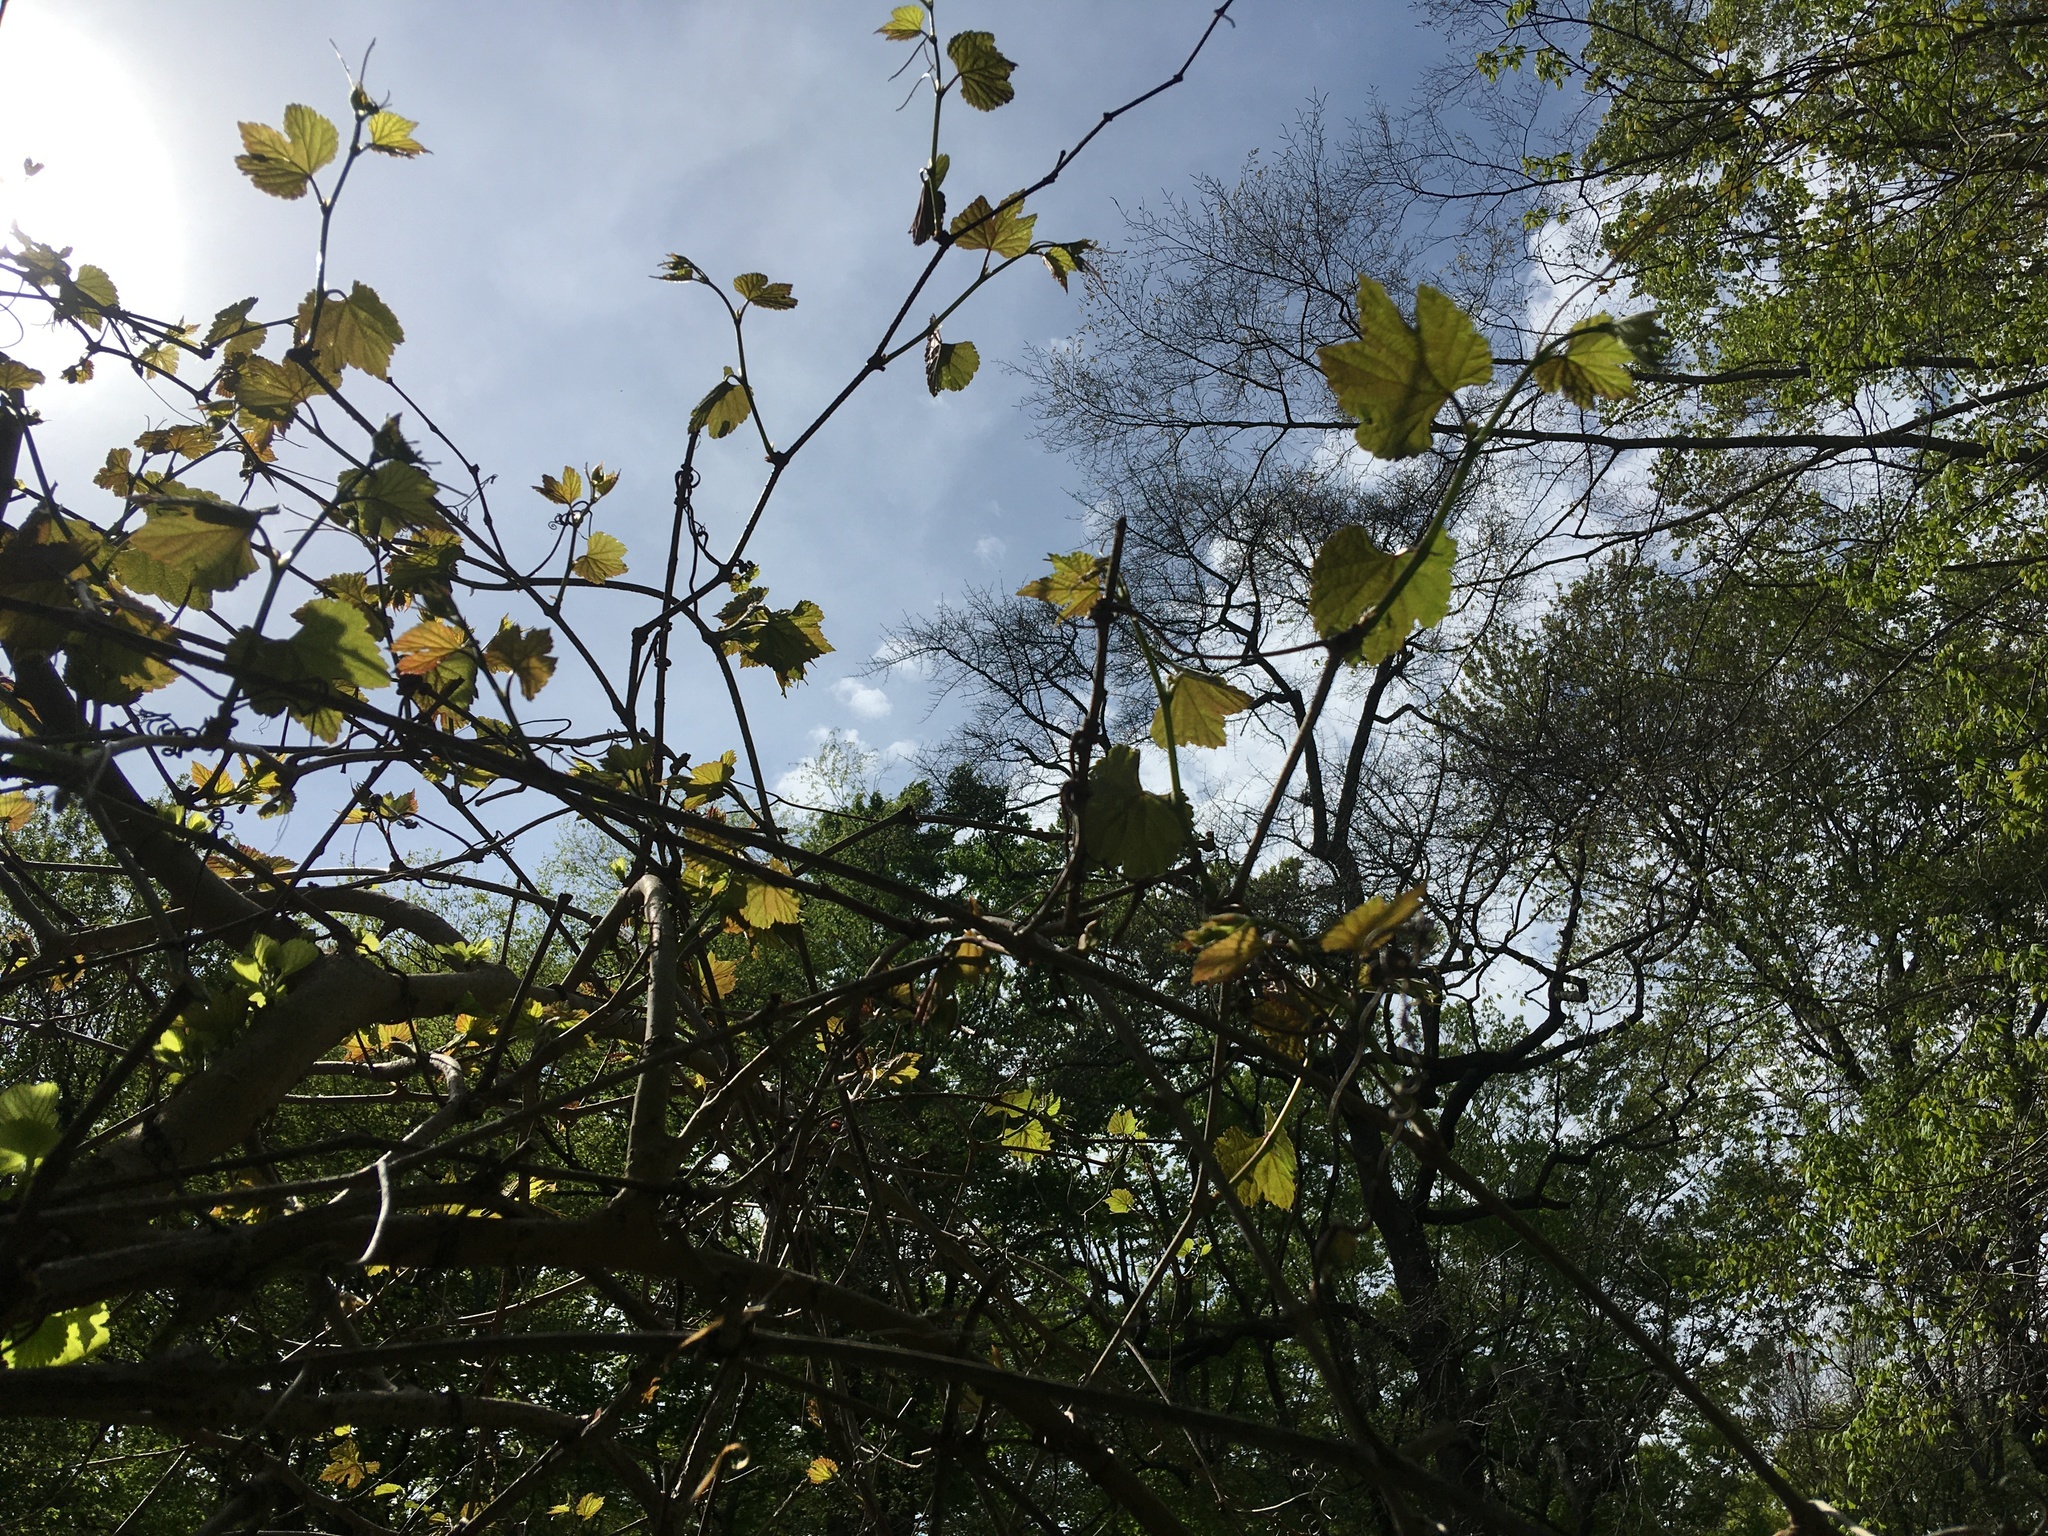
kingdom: Plantae
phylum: Tracheophyta
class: Magnoliopsida
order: Vitales
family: Vitaceae
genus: Ampelopsis
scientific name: Ampelopsis glandulosa
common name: Amur peppervine
